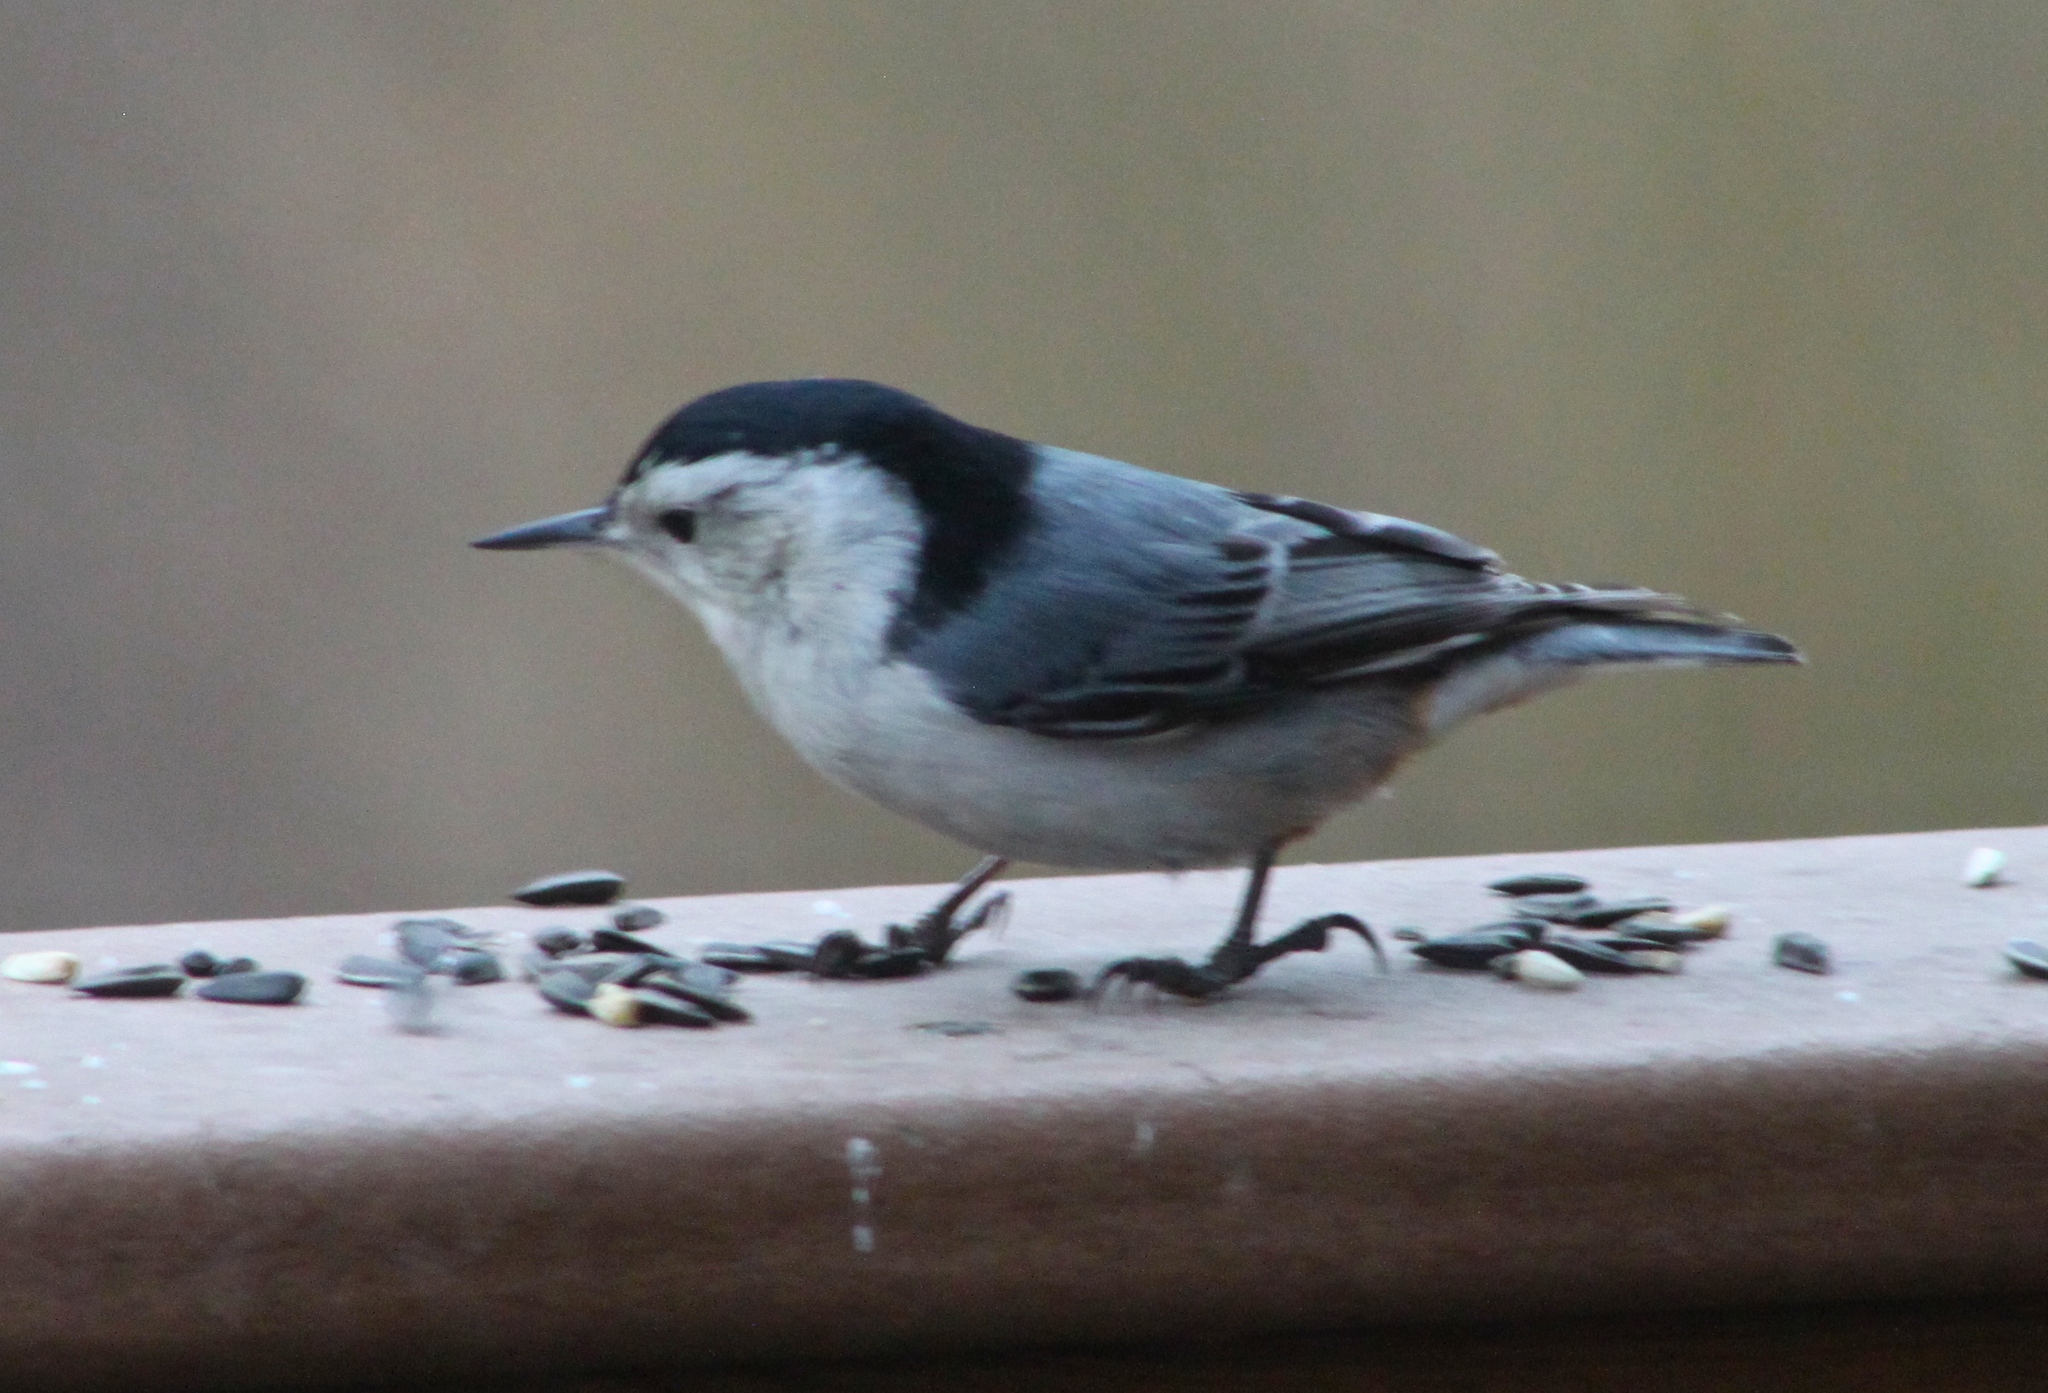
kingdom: Animalia
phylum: Chordata
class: Aves
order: Passeriformes
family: Sittidae
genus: Sitta
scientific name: Sitta carolinensis
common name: White-breasted nuthatch
